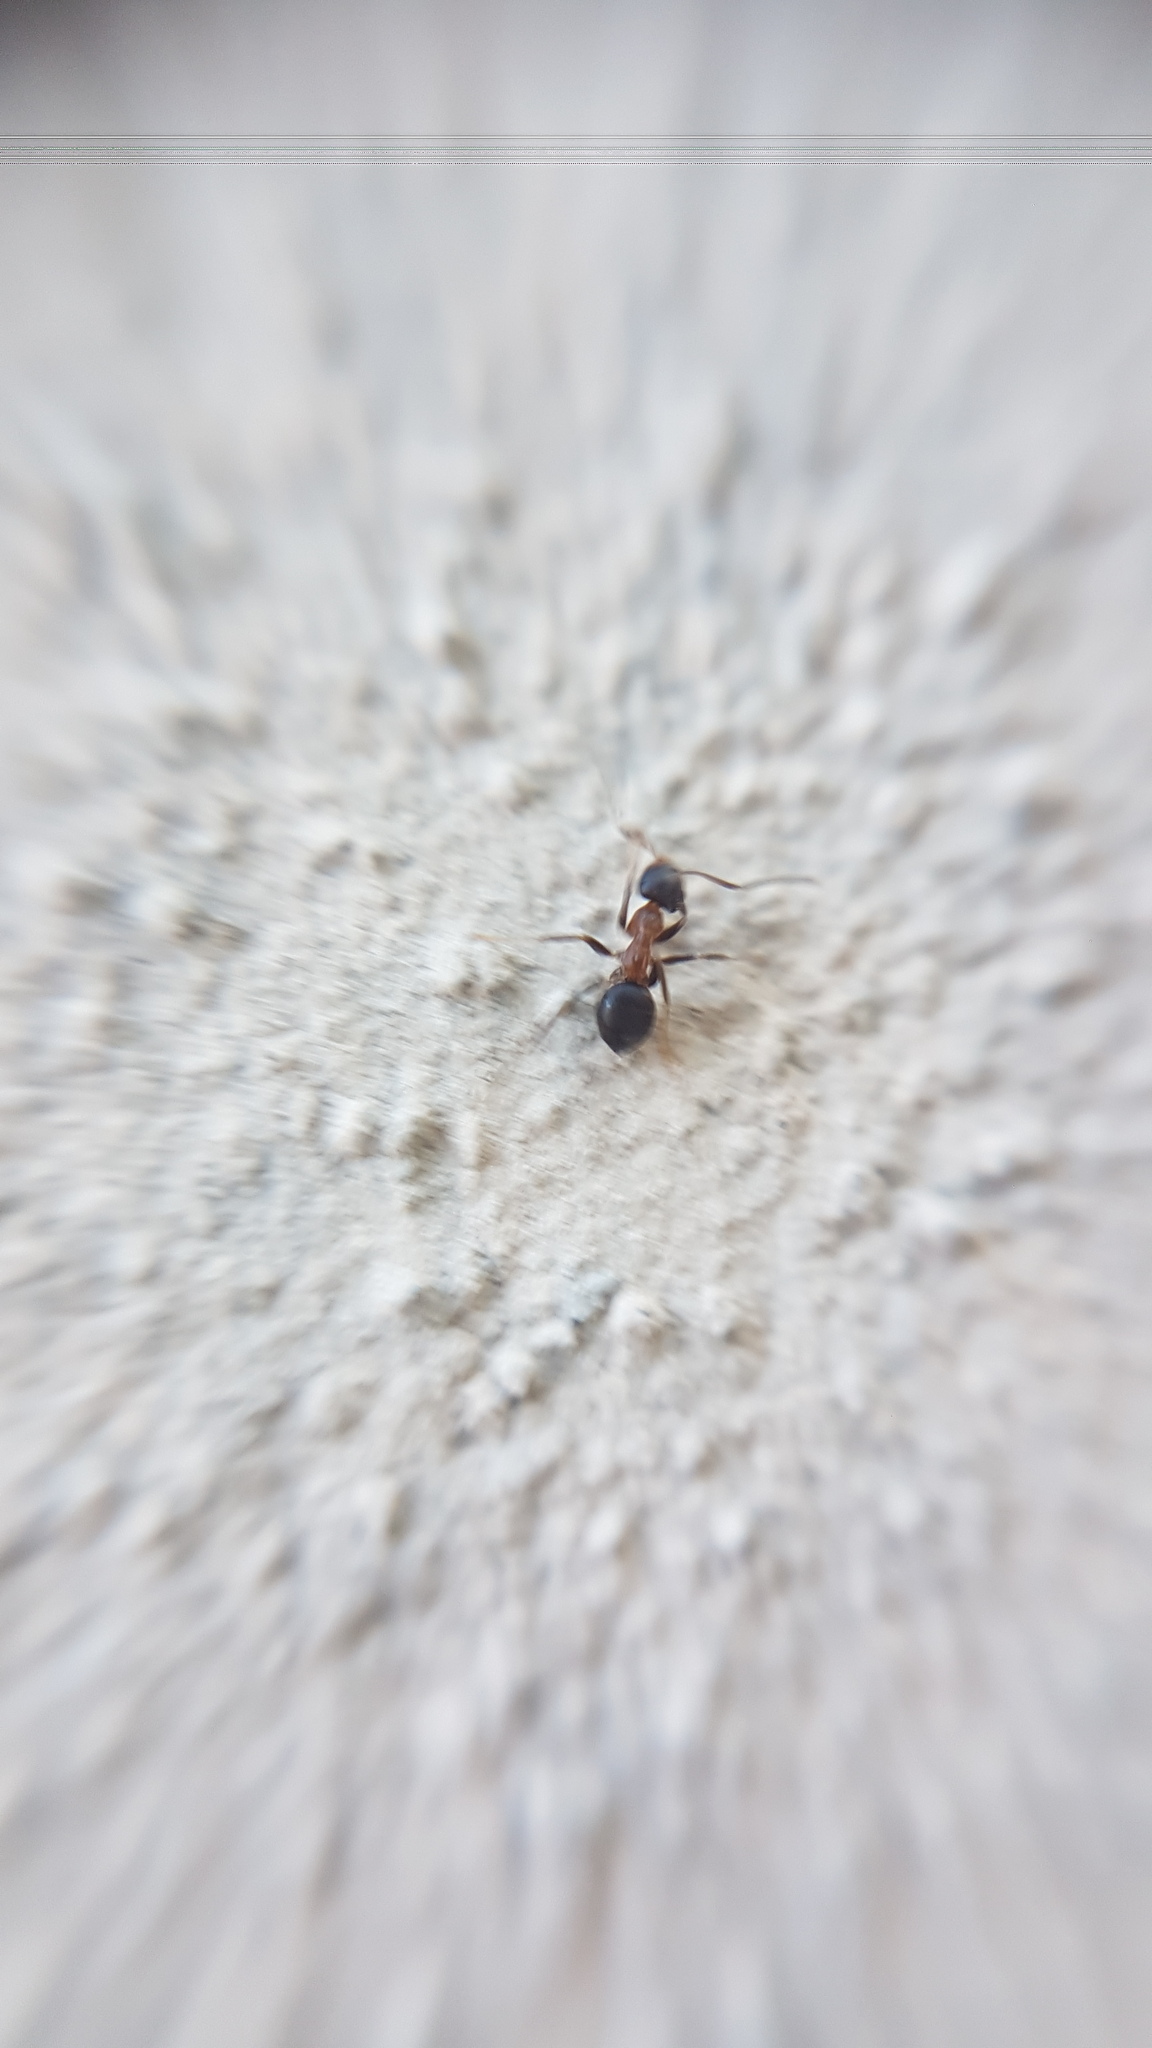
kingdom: Animalia
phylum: Arthropoda
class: Insecta
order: Hymenoptera
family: Formicidae
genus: Lasius
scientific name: Lasius emarginatus
